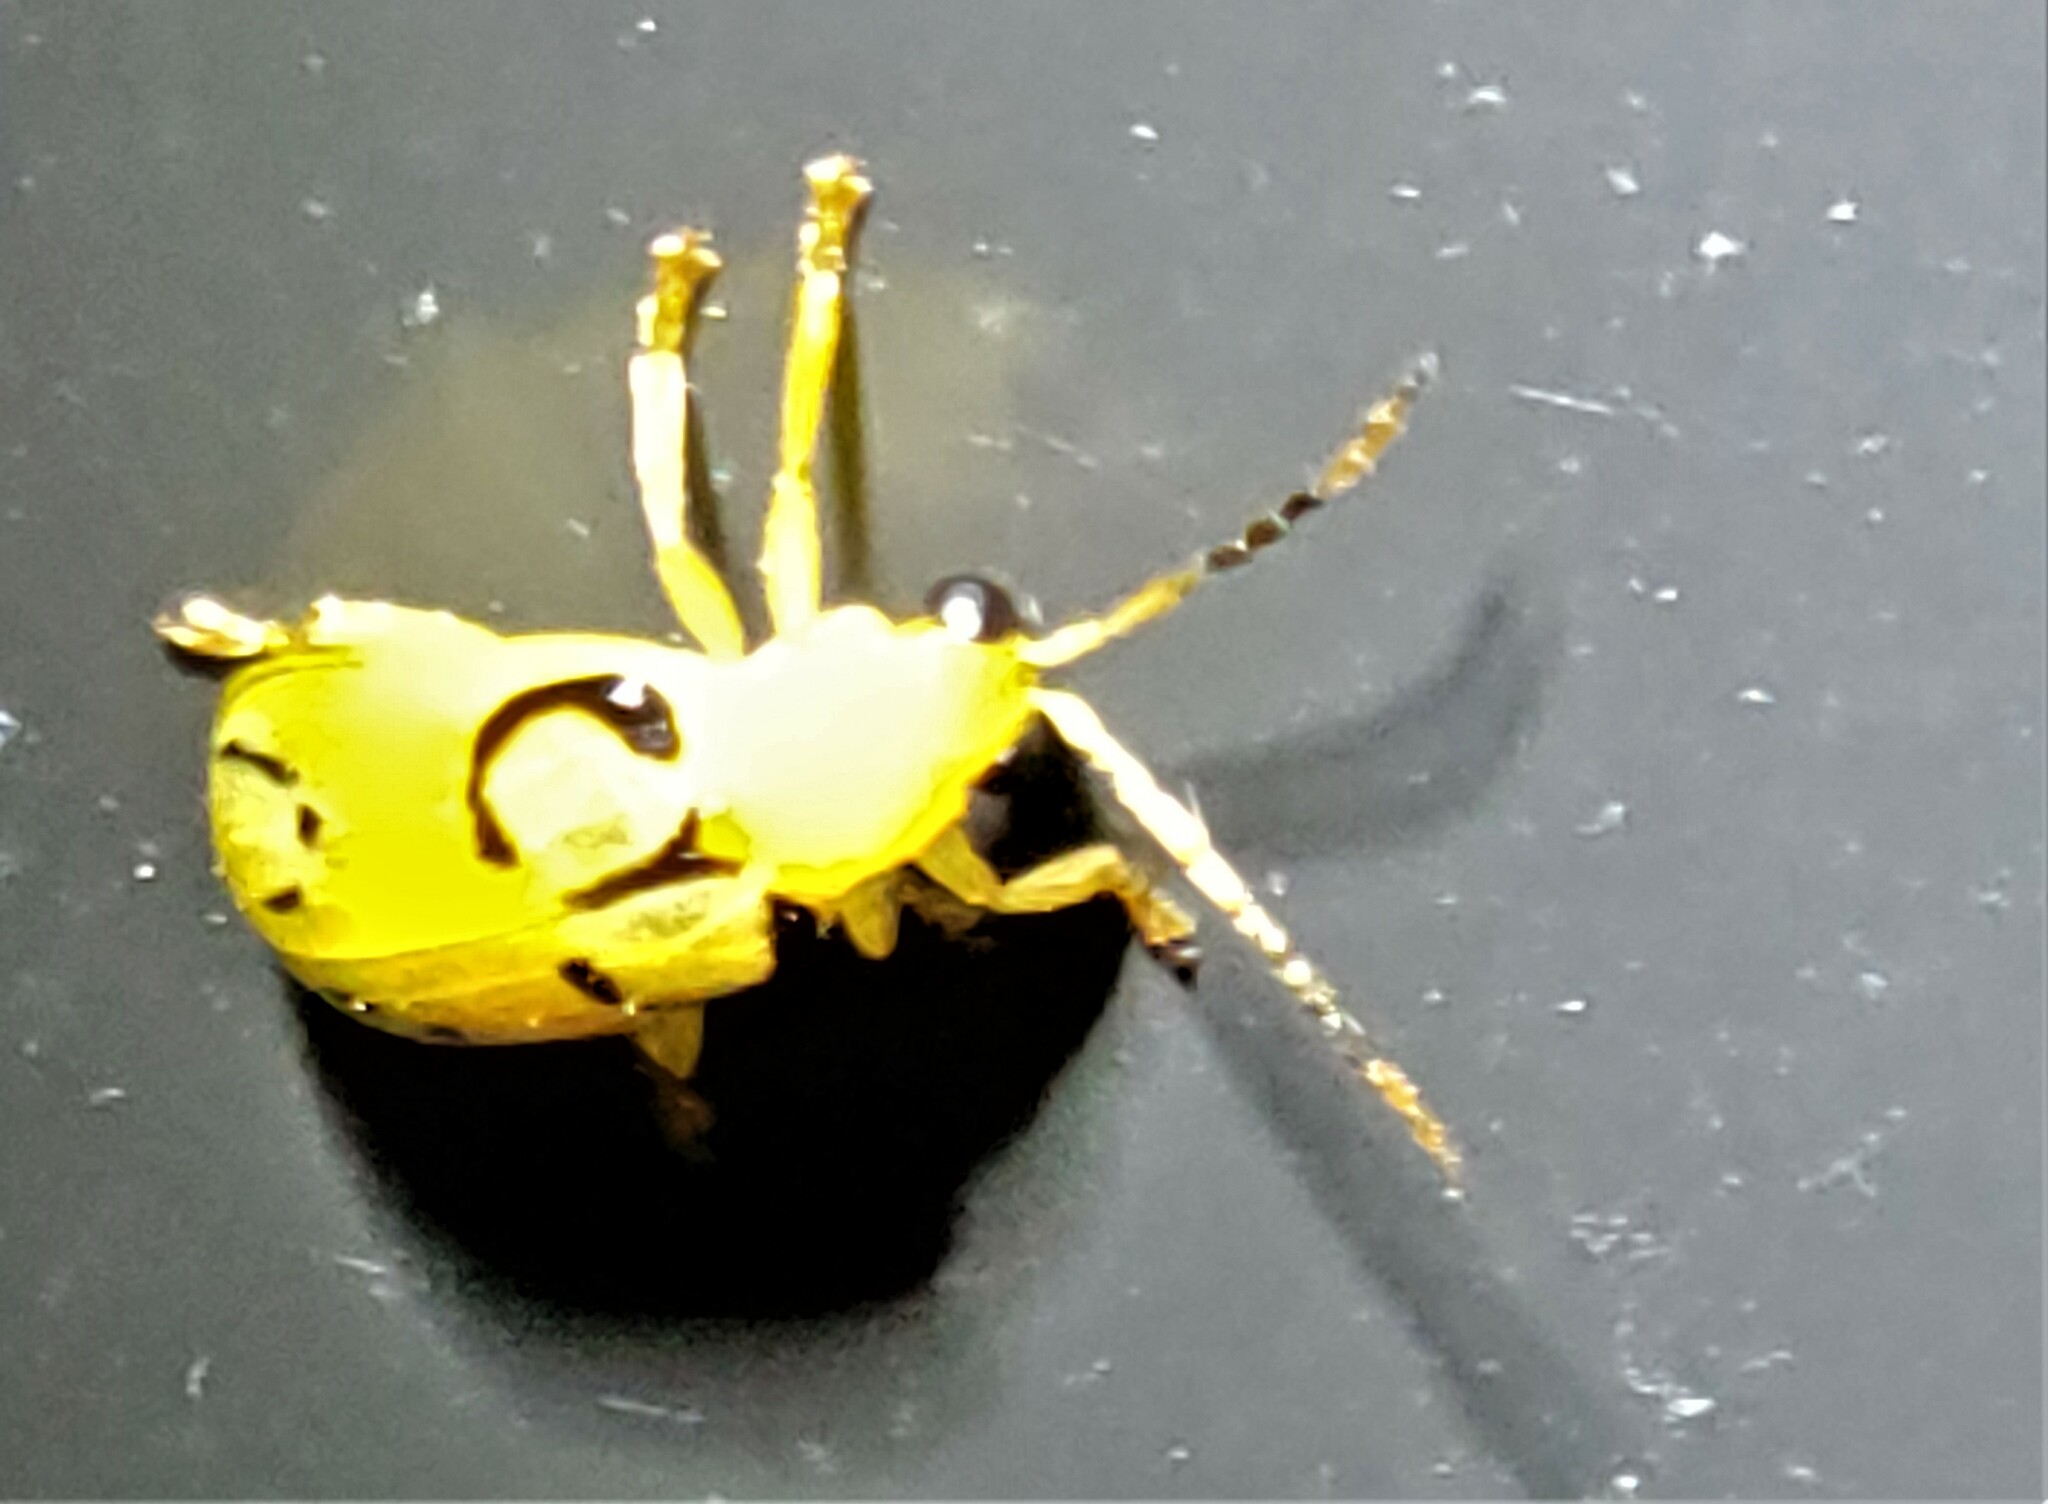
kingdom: Animalia
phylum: Arthropoda
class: Insecta
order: Coleoptera
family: Chrysomelidae
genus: Diabrotica
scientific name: Diabrotica
